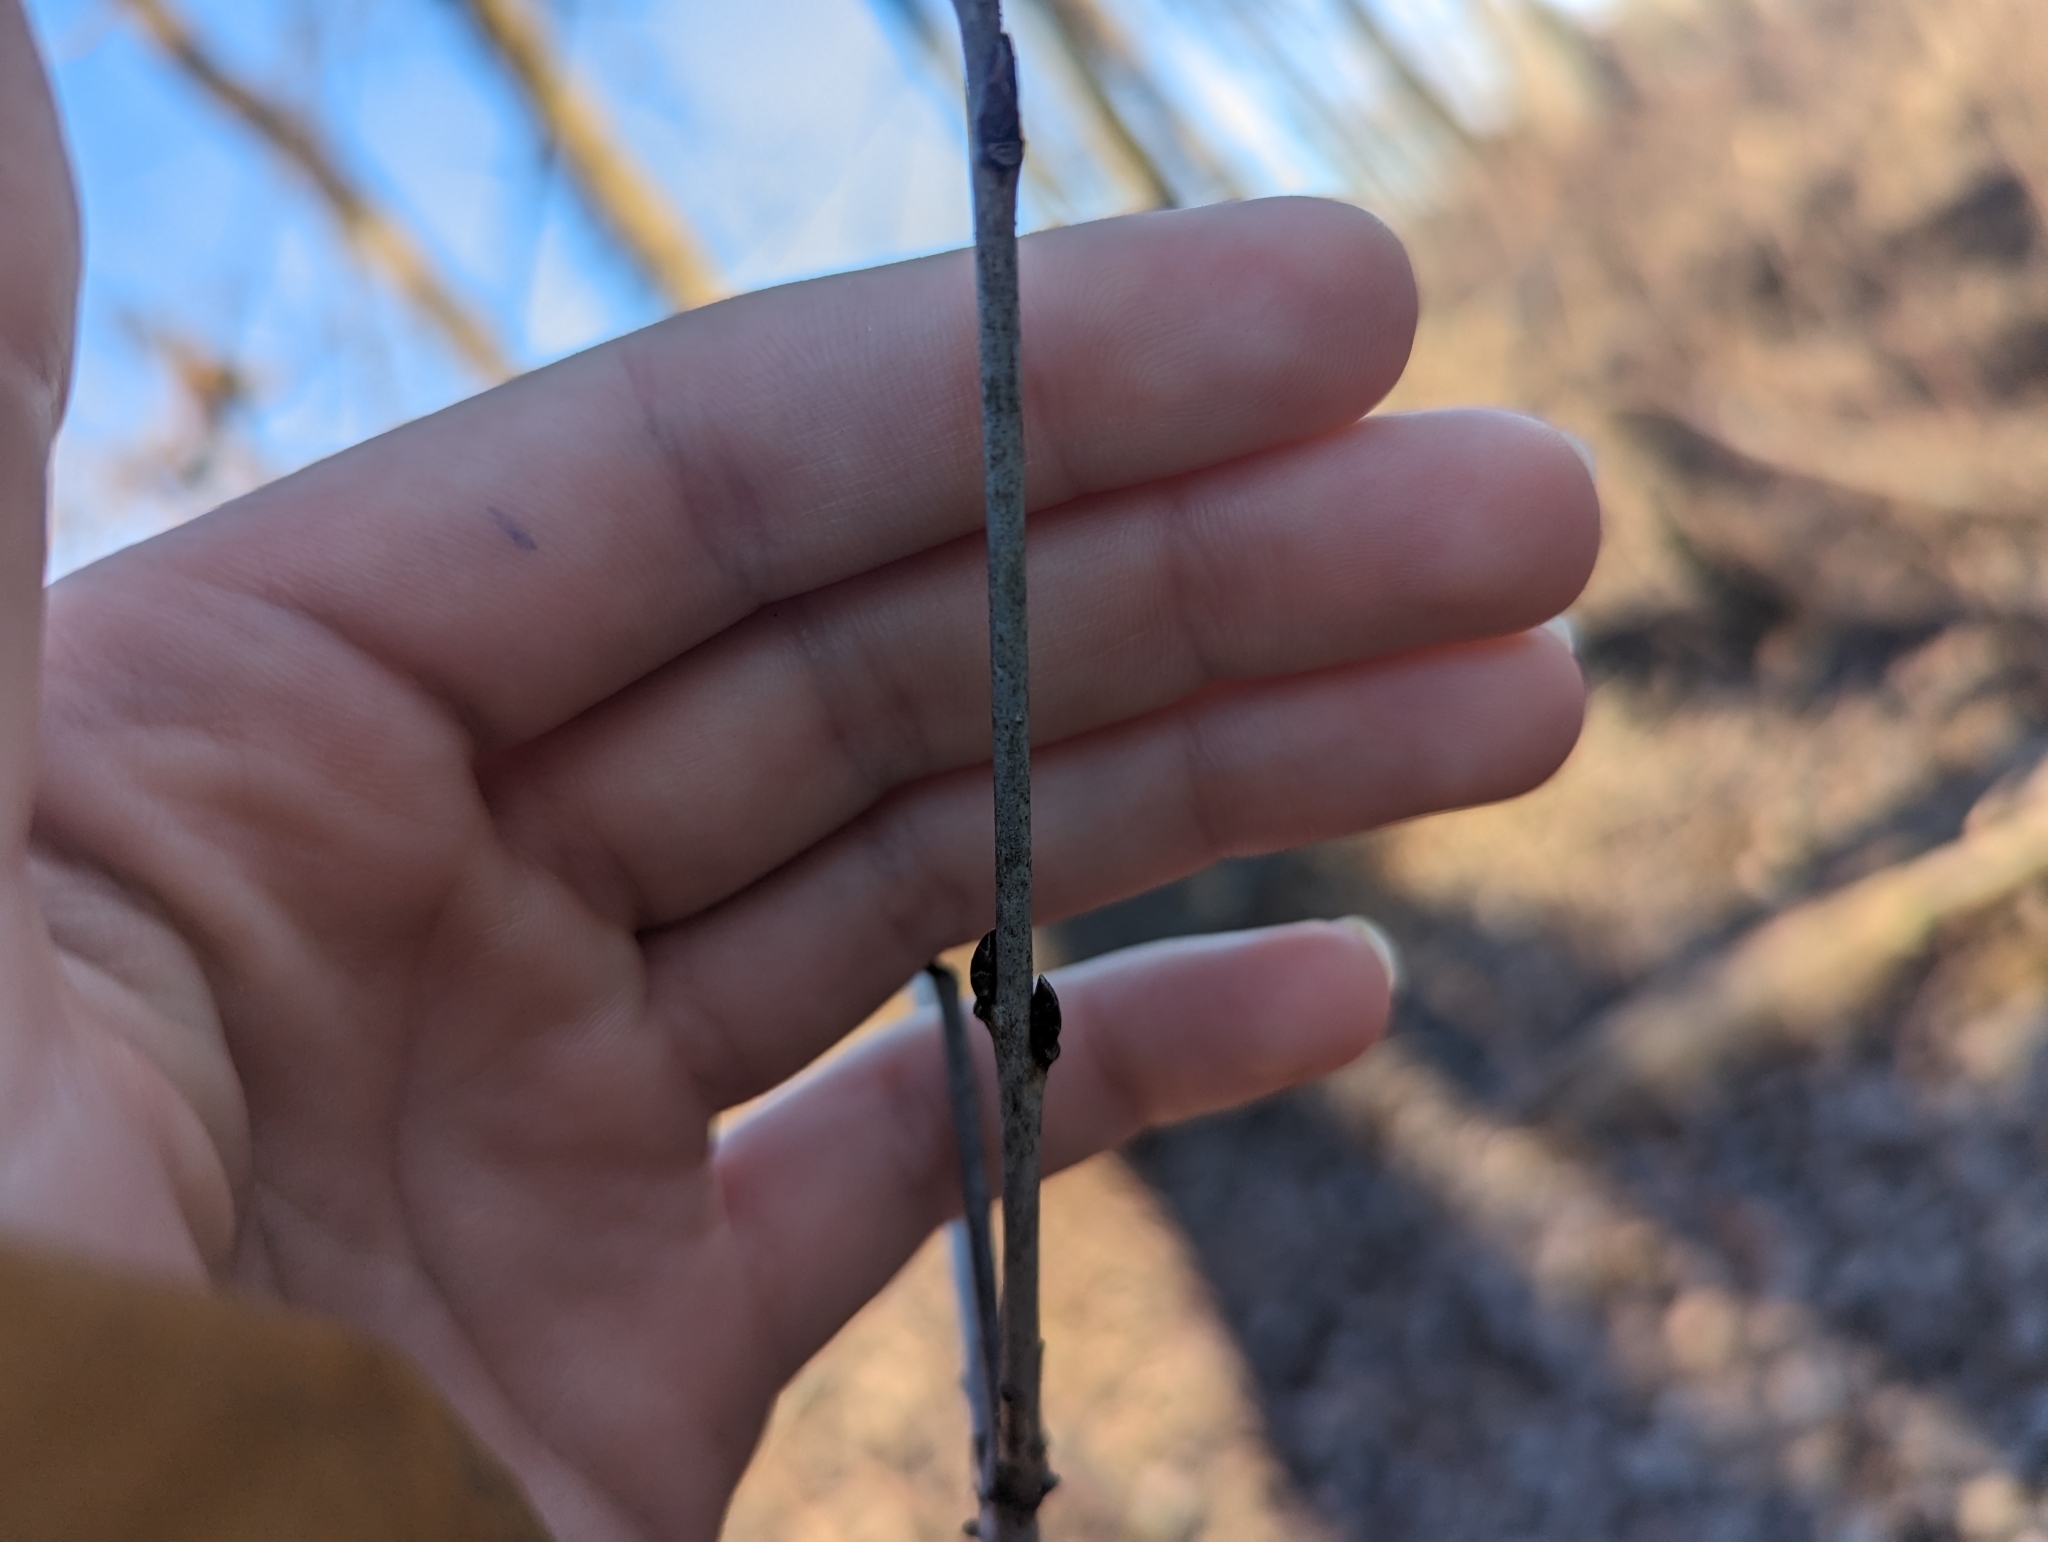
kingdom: Plantae
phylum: Tracheophyta
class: Magnoliopsida
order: Rosales
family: Rhamnaceae
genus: Rhamnus
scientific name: Rhamnus cathartica
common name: Common buckthorn
